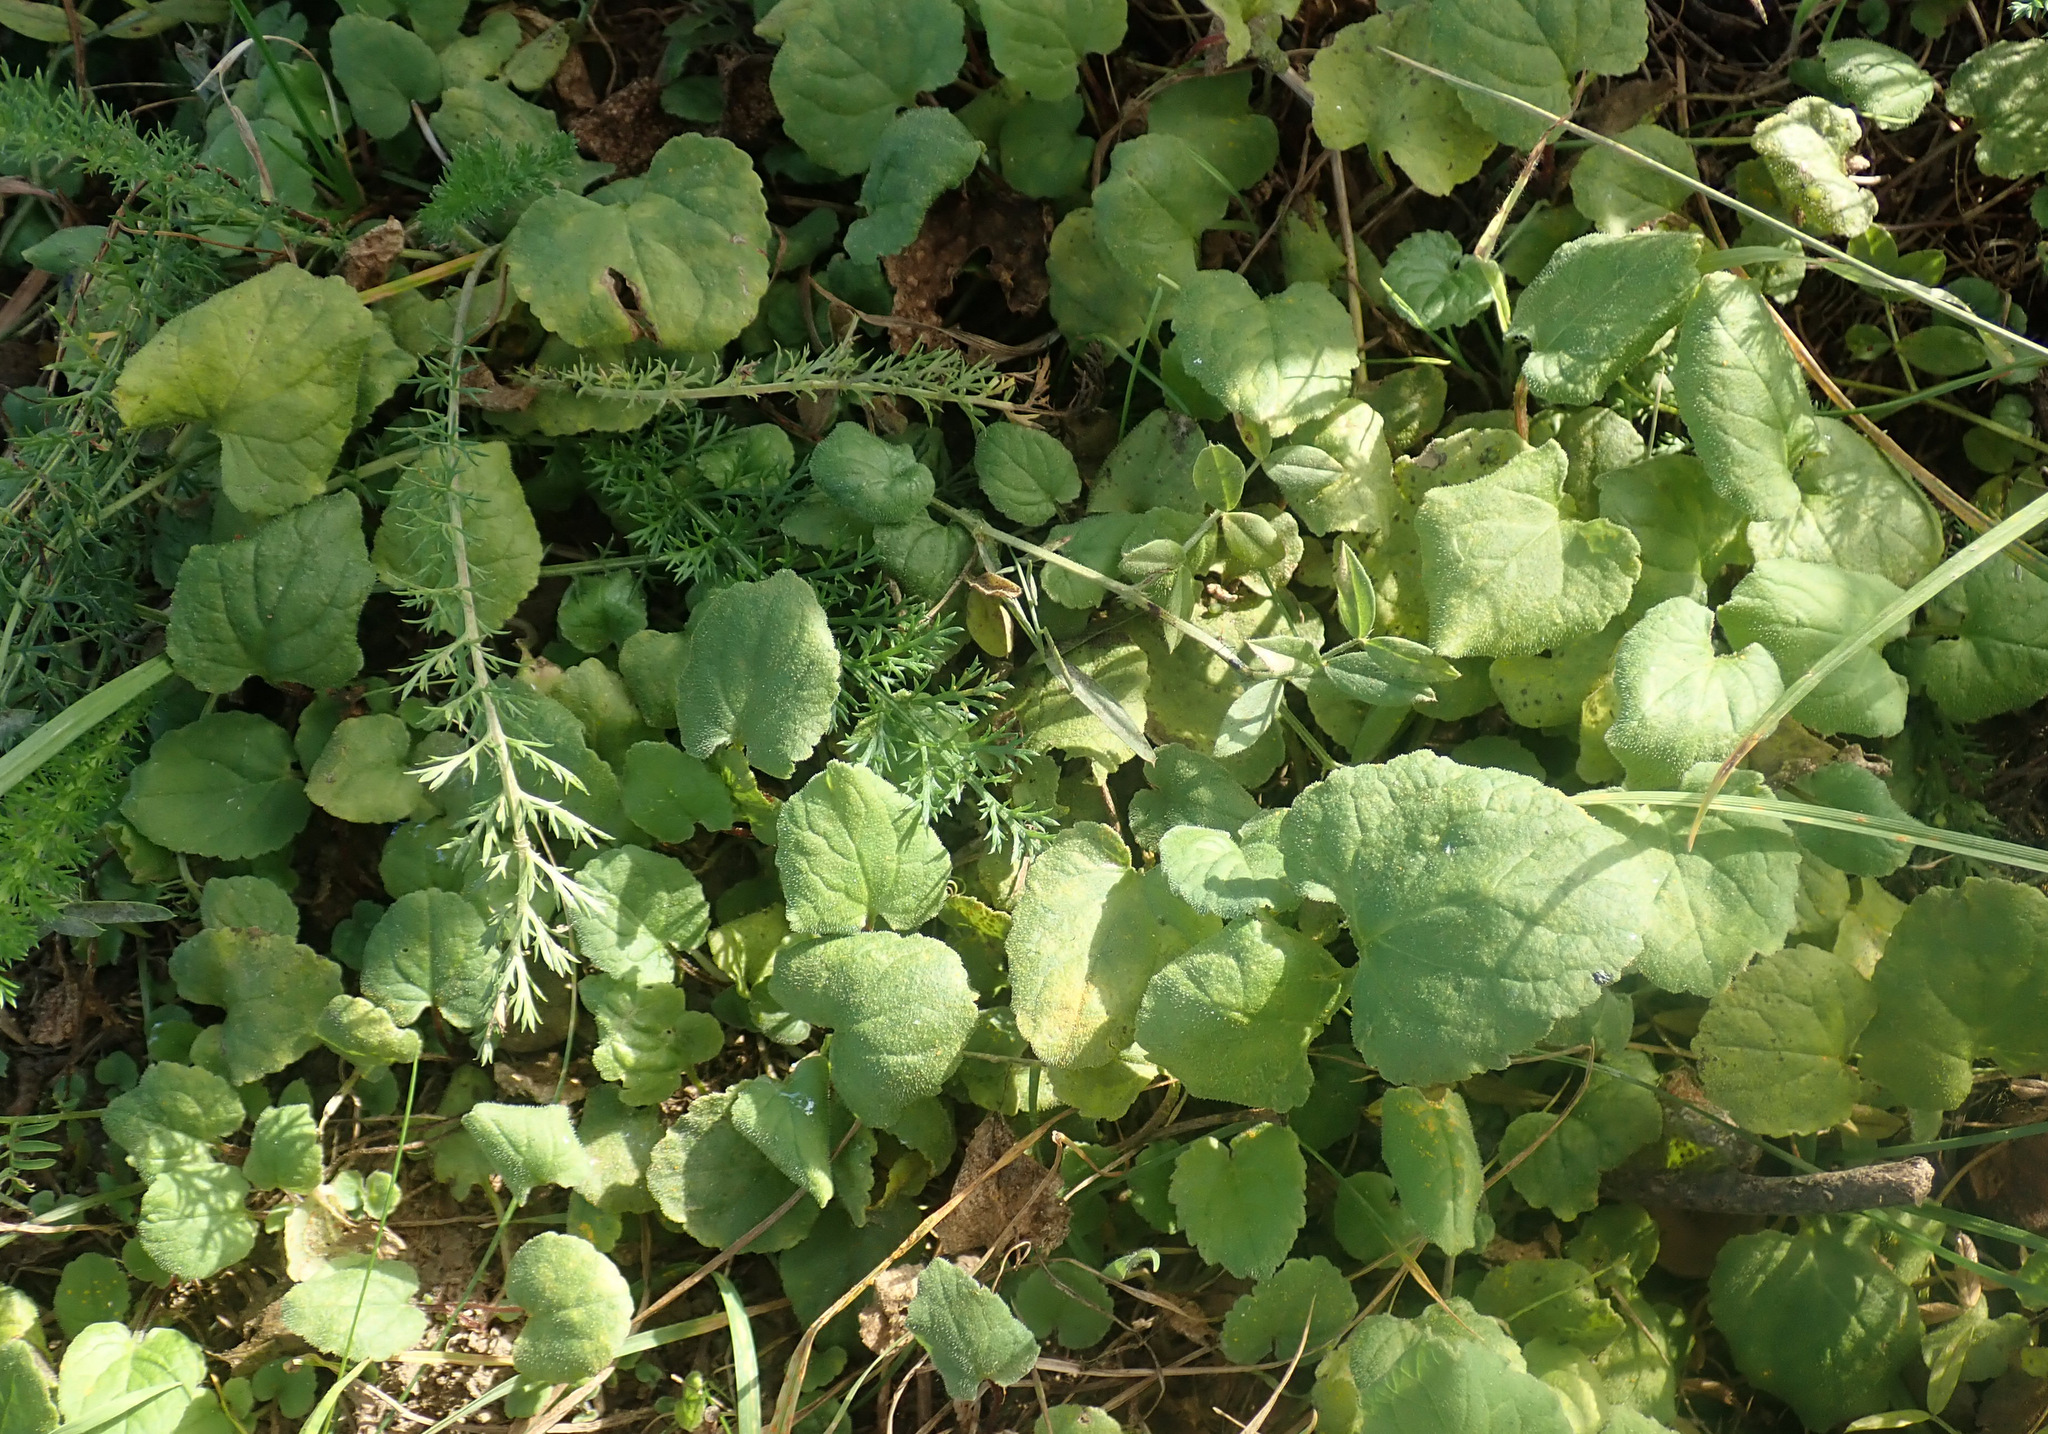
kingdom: Plantae
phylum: Tracheophyta
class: Magnoliopsida
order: Asterales
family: Campanulaceae
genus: Campanula
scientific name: Campanula rapunculoides
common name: Creeping bellflower
